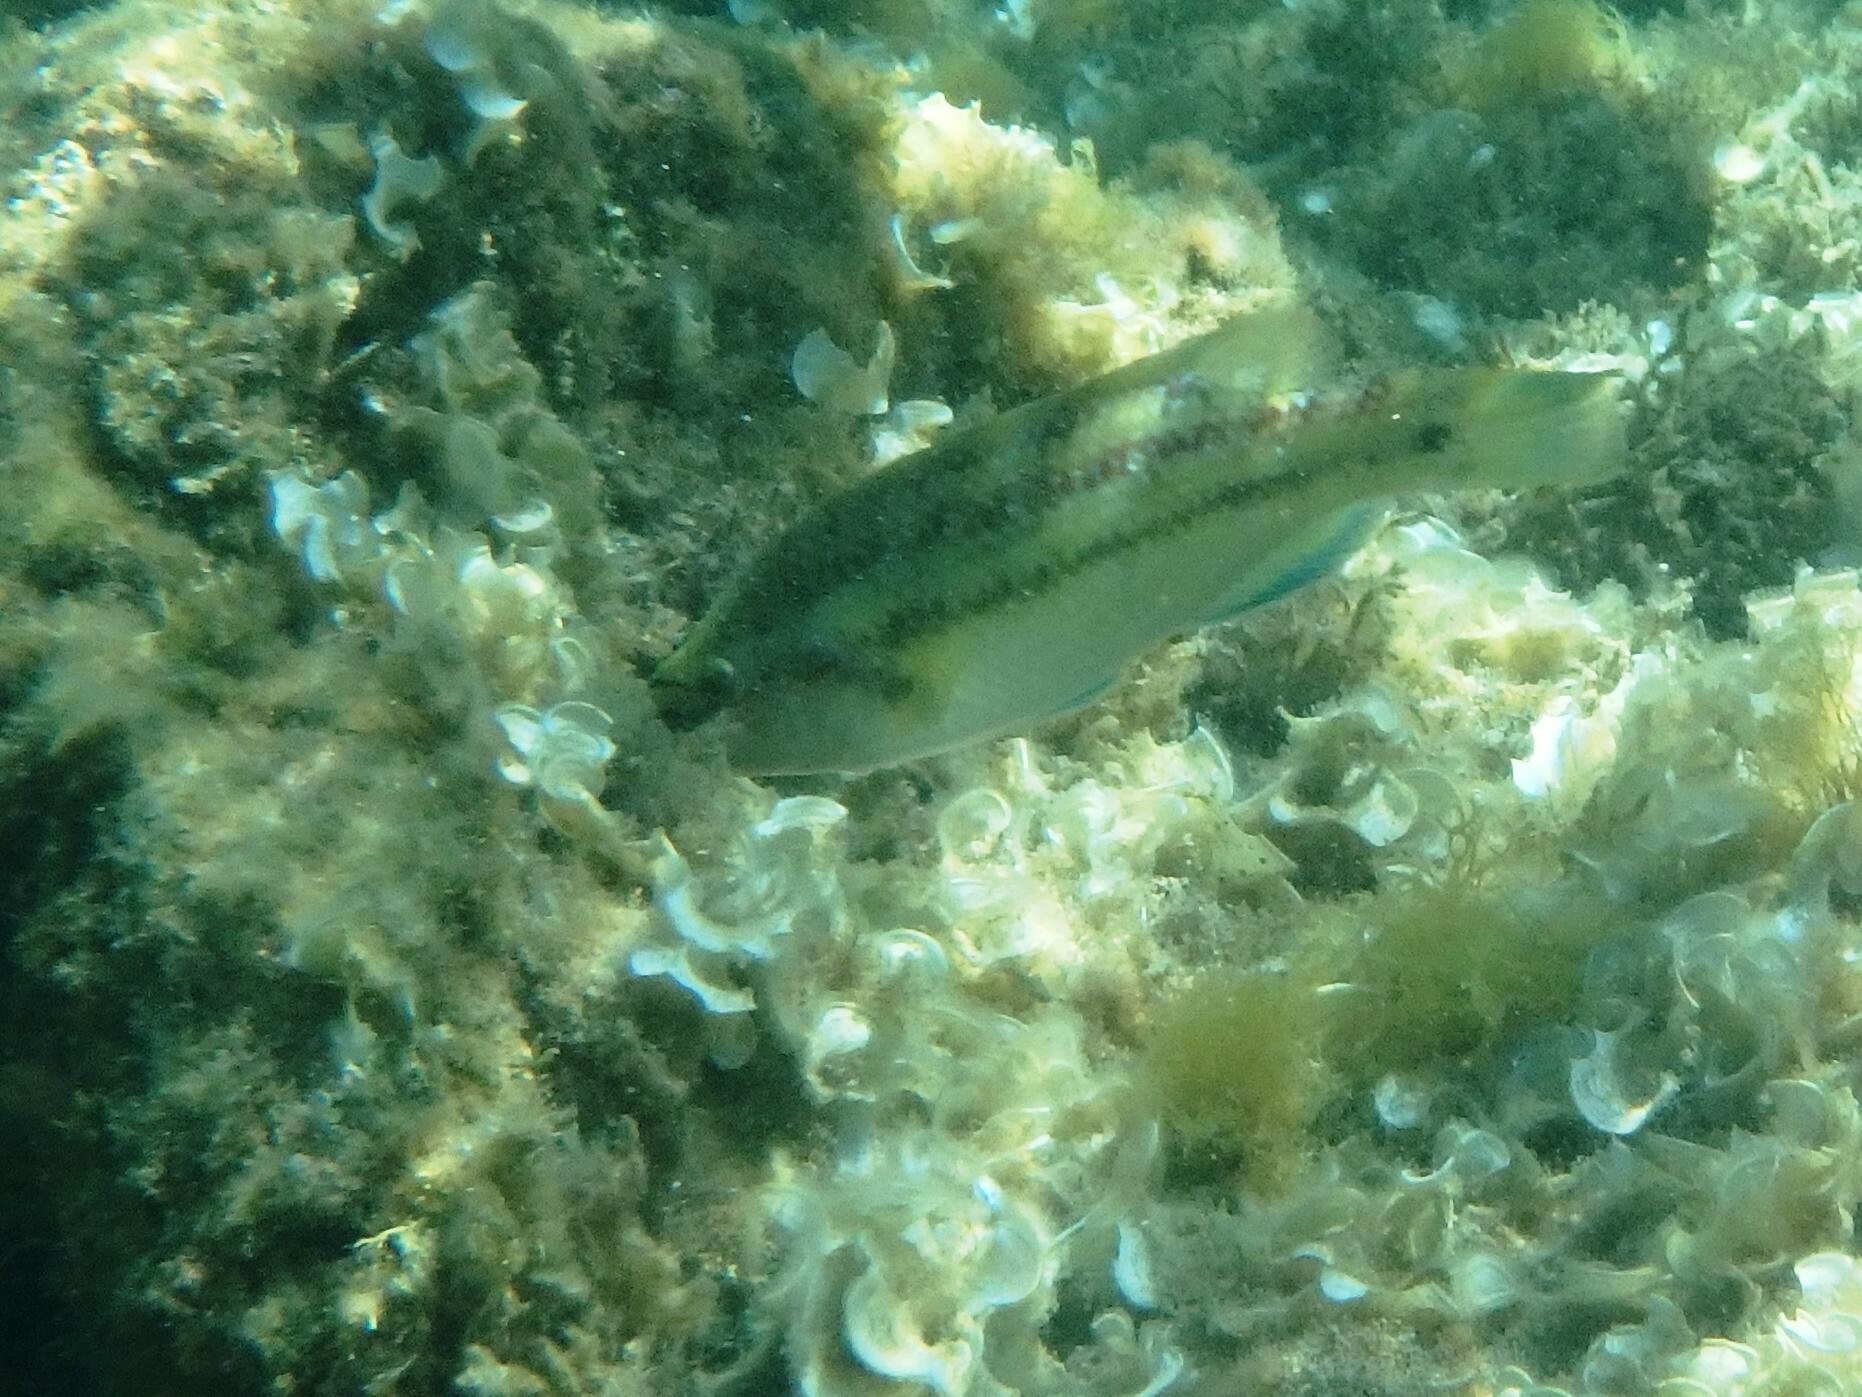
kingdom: Animalia
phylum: Chordata
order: Perciformes
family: Labridae
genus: Symphodus
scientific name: Symphodus tinca
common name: Peacock wrasse
